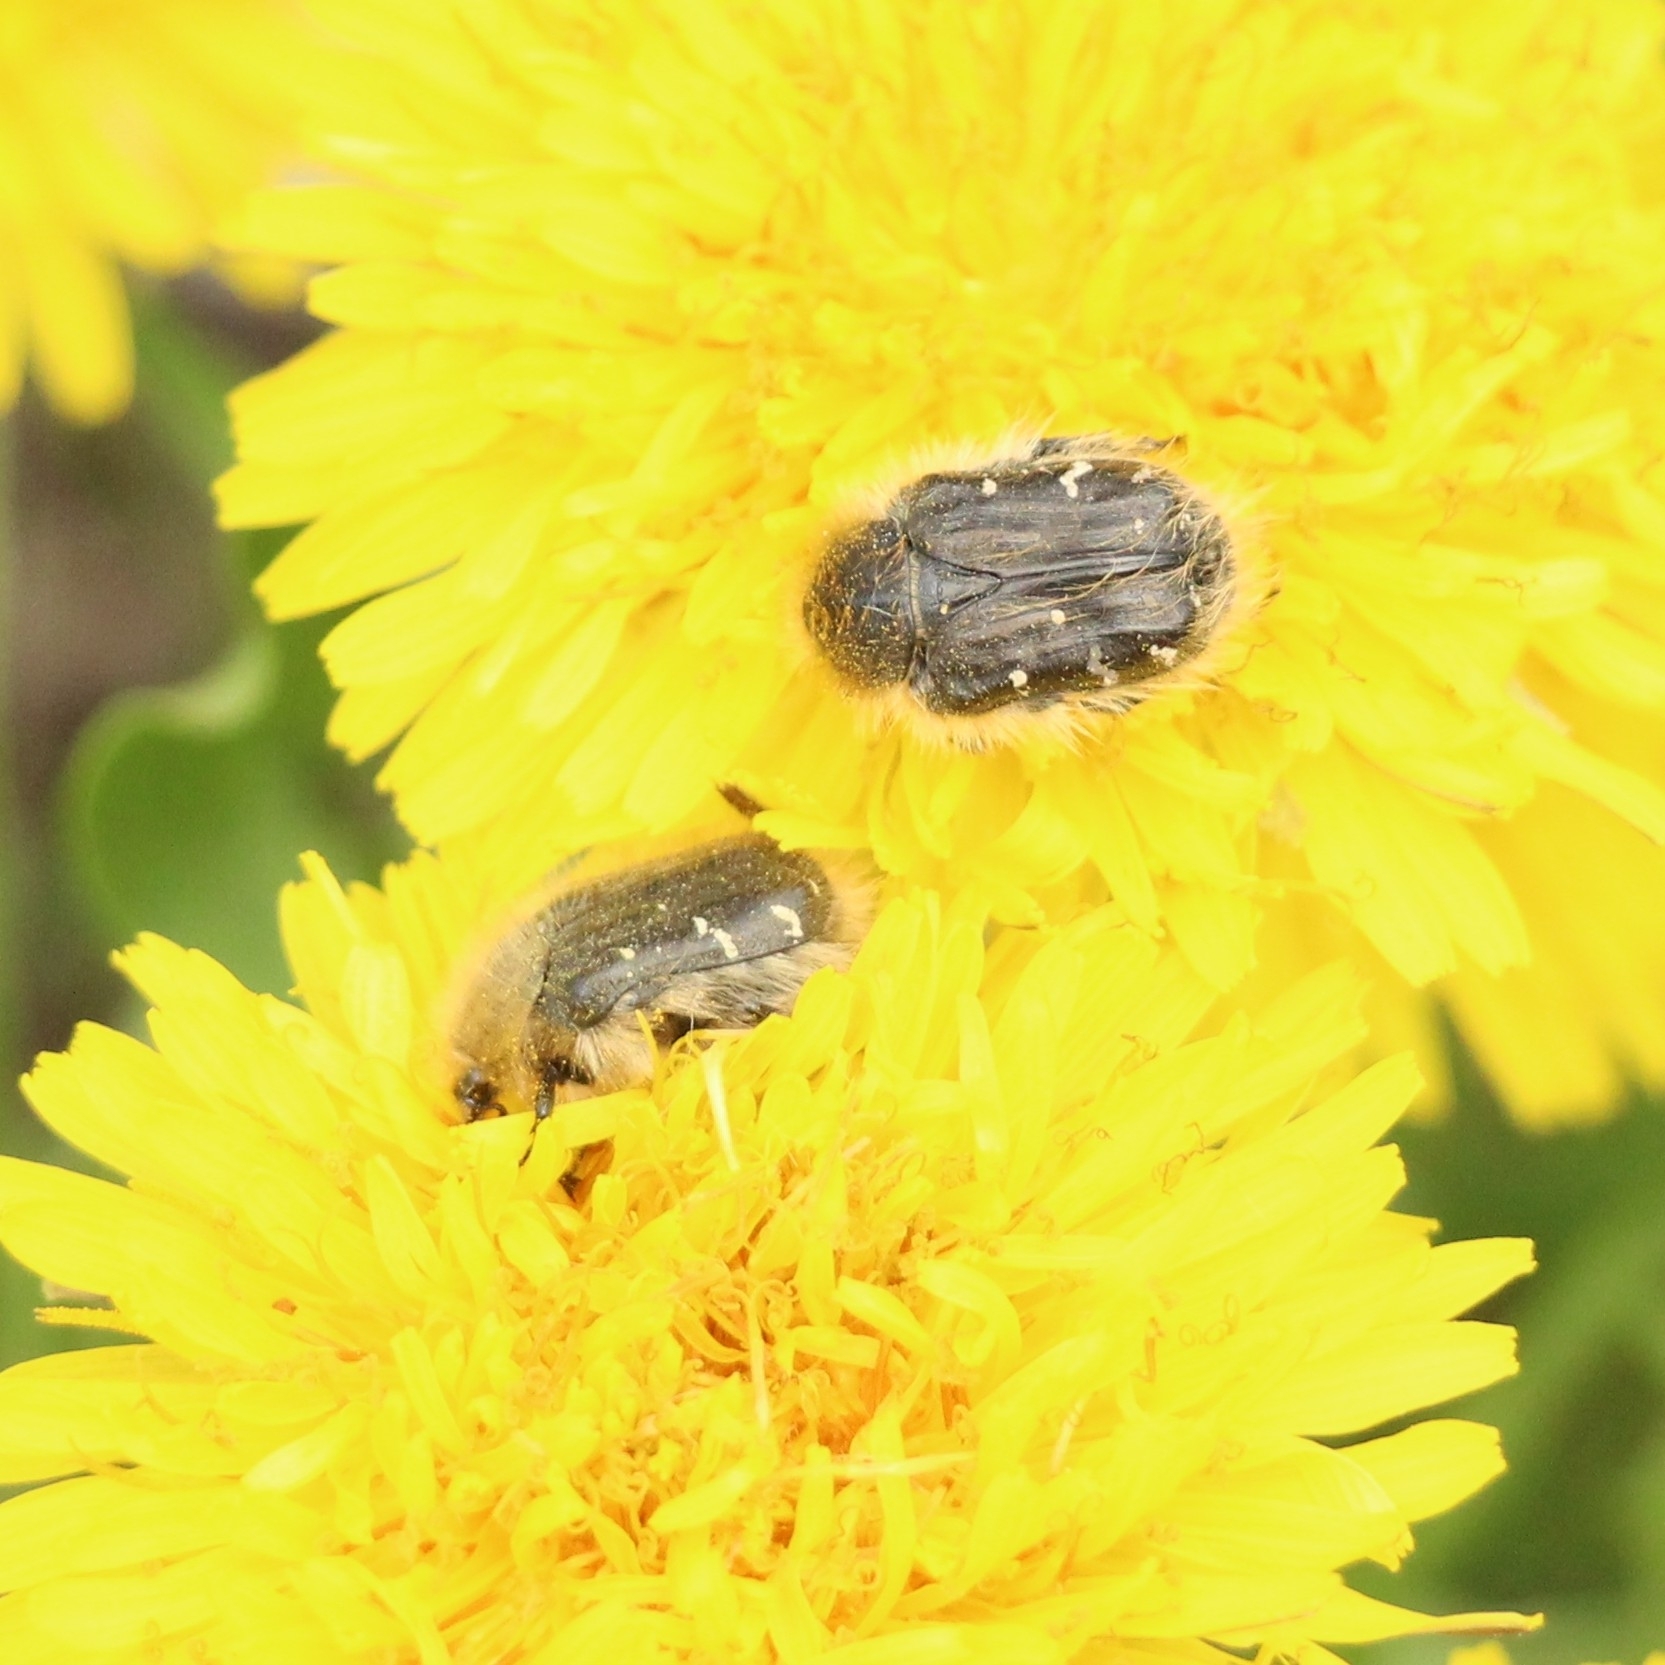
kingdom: Animalia
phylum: Arthropoda
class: Insecta
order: Coleoptera
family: Scarabaeidae
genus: Tropinota
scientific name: Tropinota hirta
